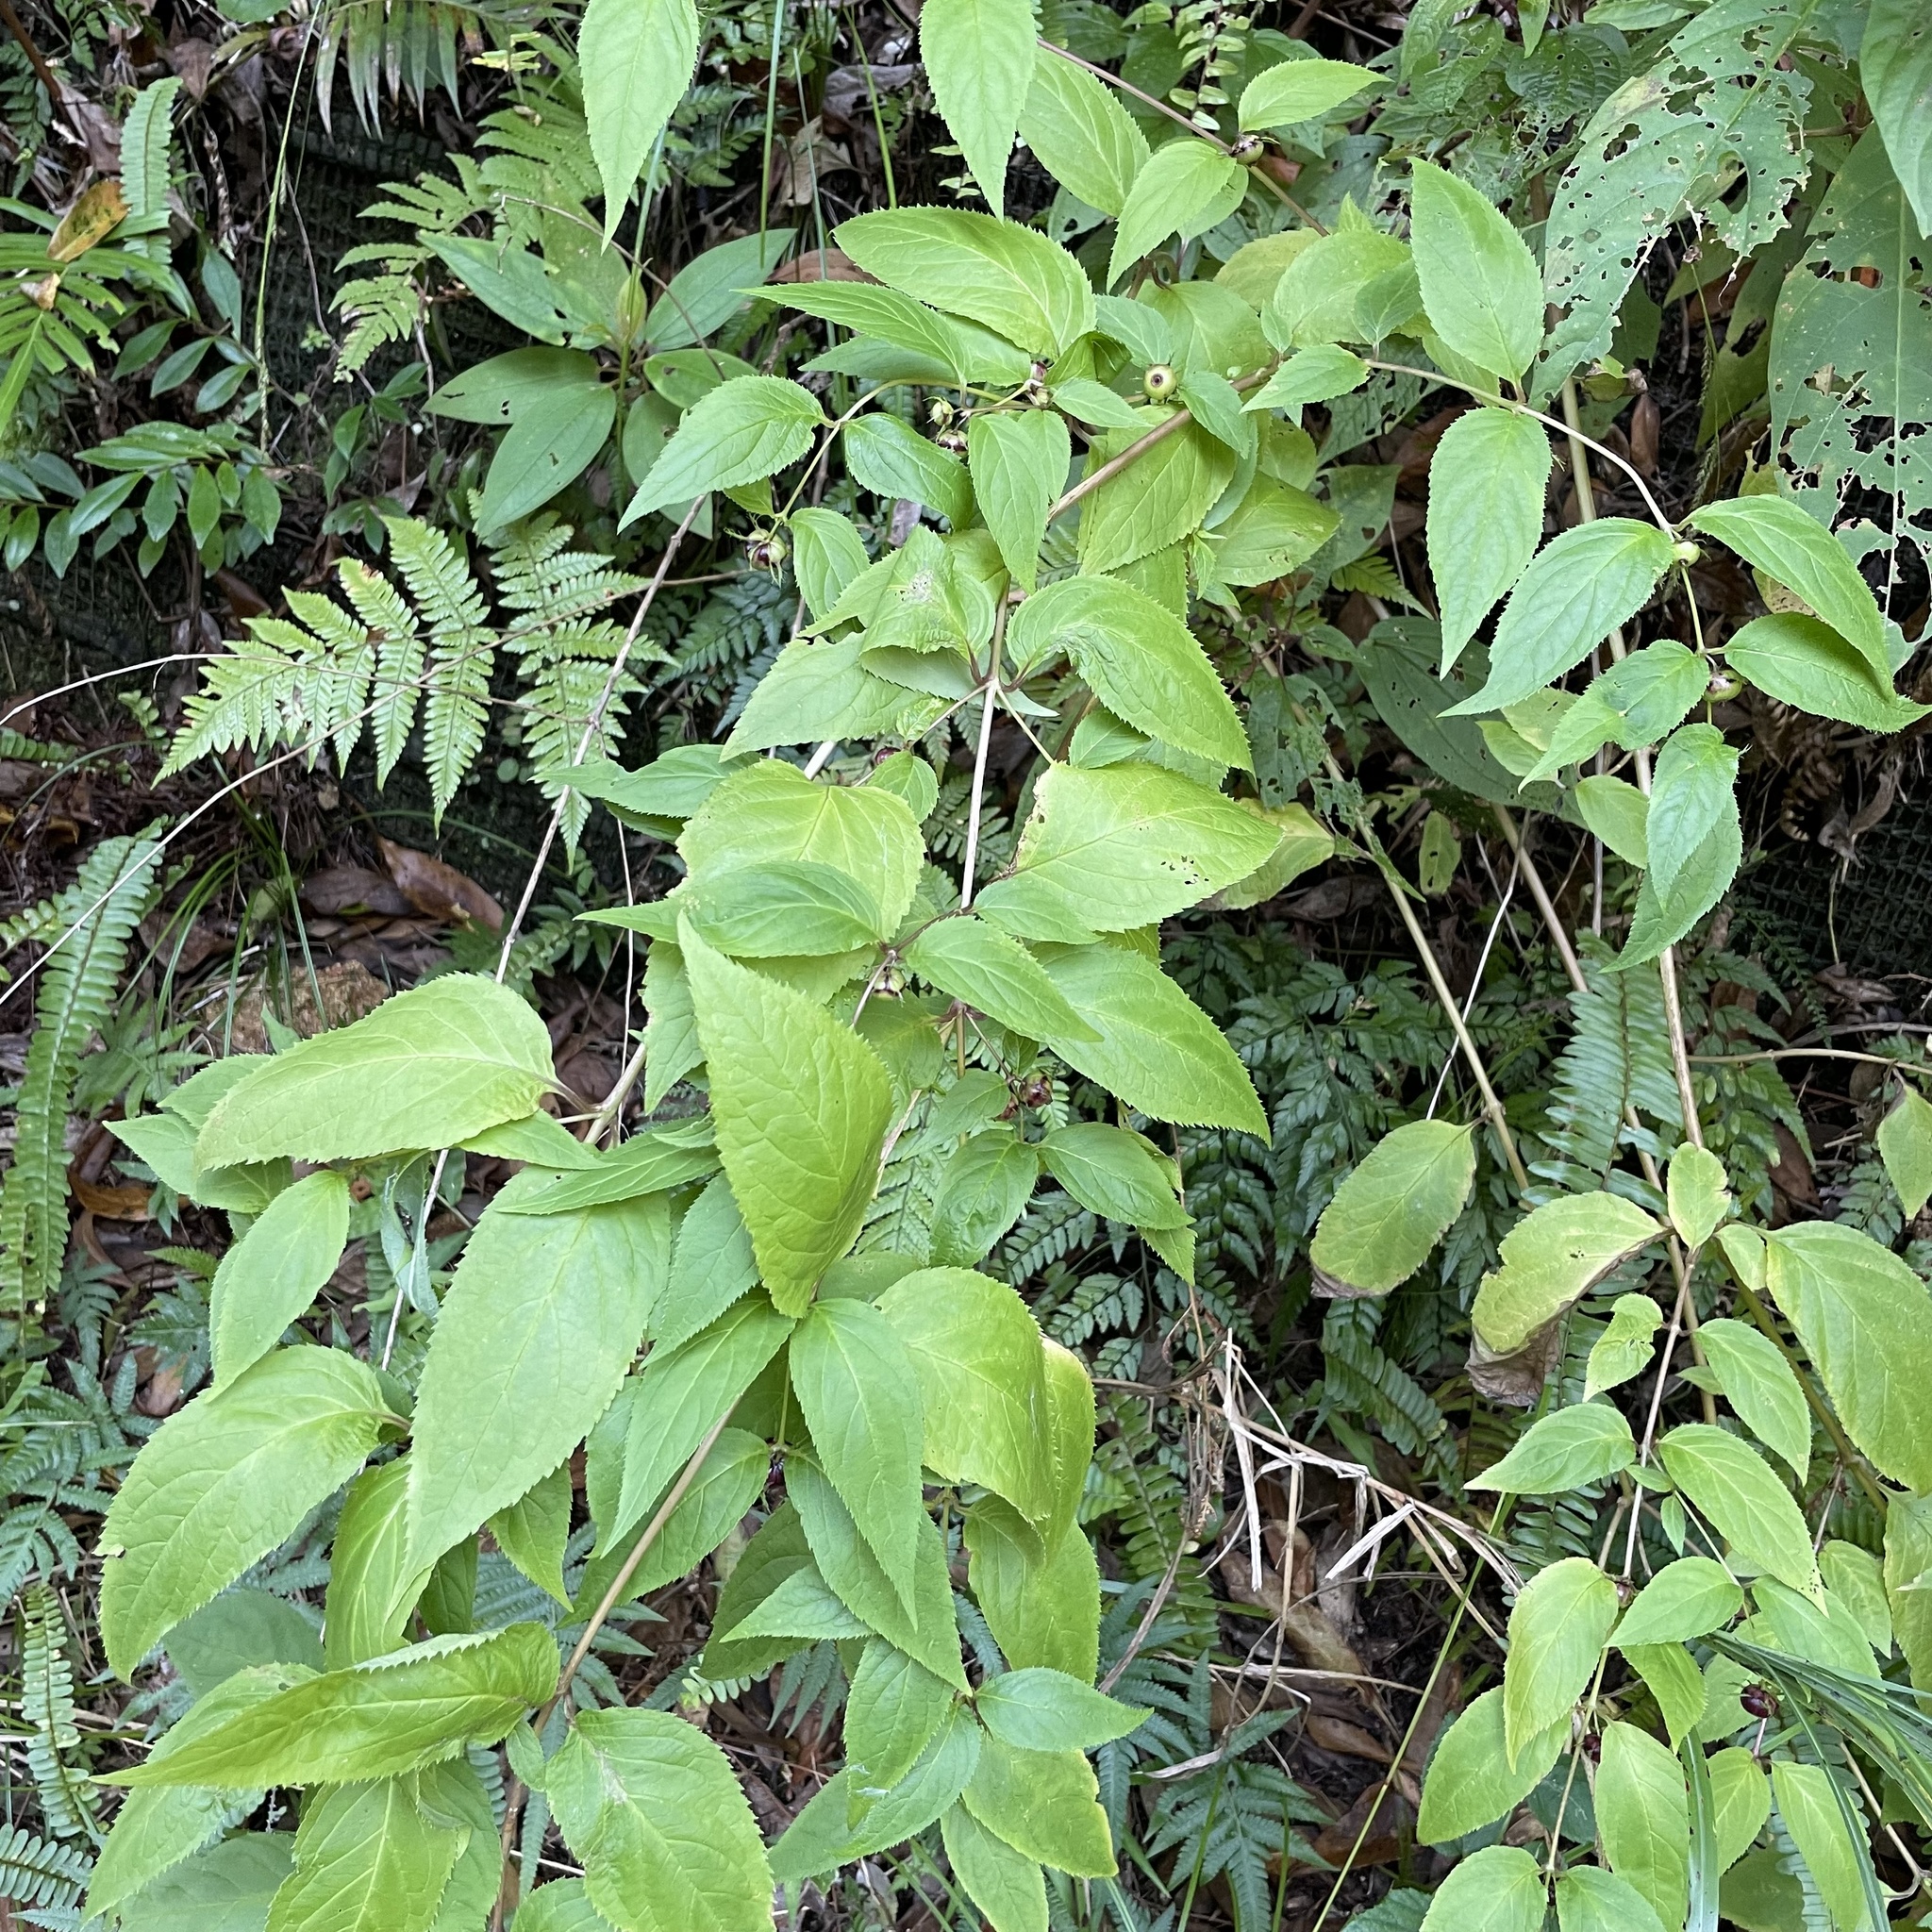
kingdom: Plantae
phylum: Tracheophyta
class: Magnoliopsida
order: Asterales
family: Campanulaceae
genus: Cyclocodon
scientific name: Cyclocodon lancifolius
